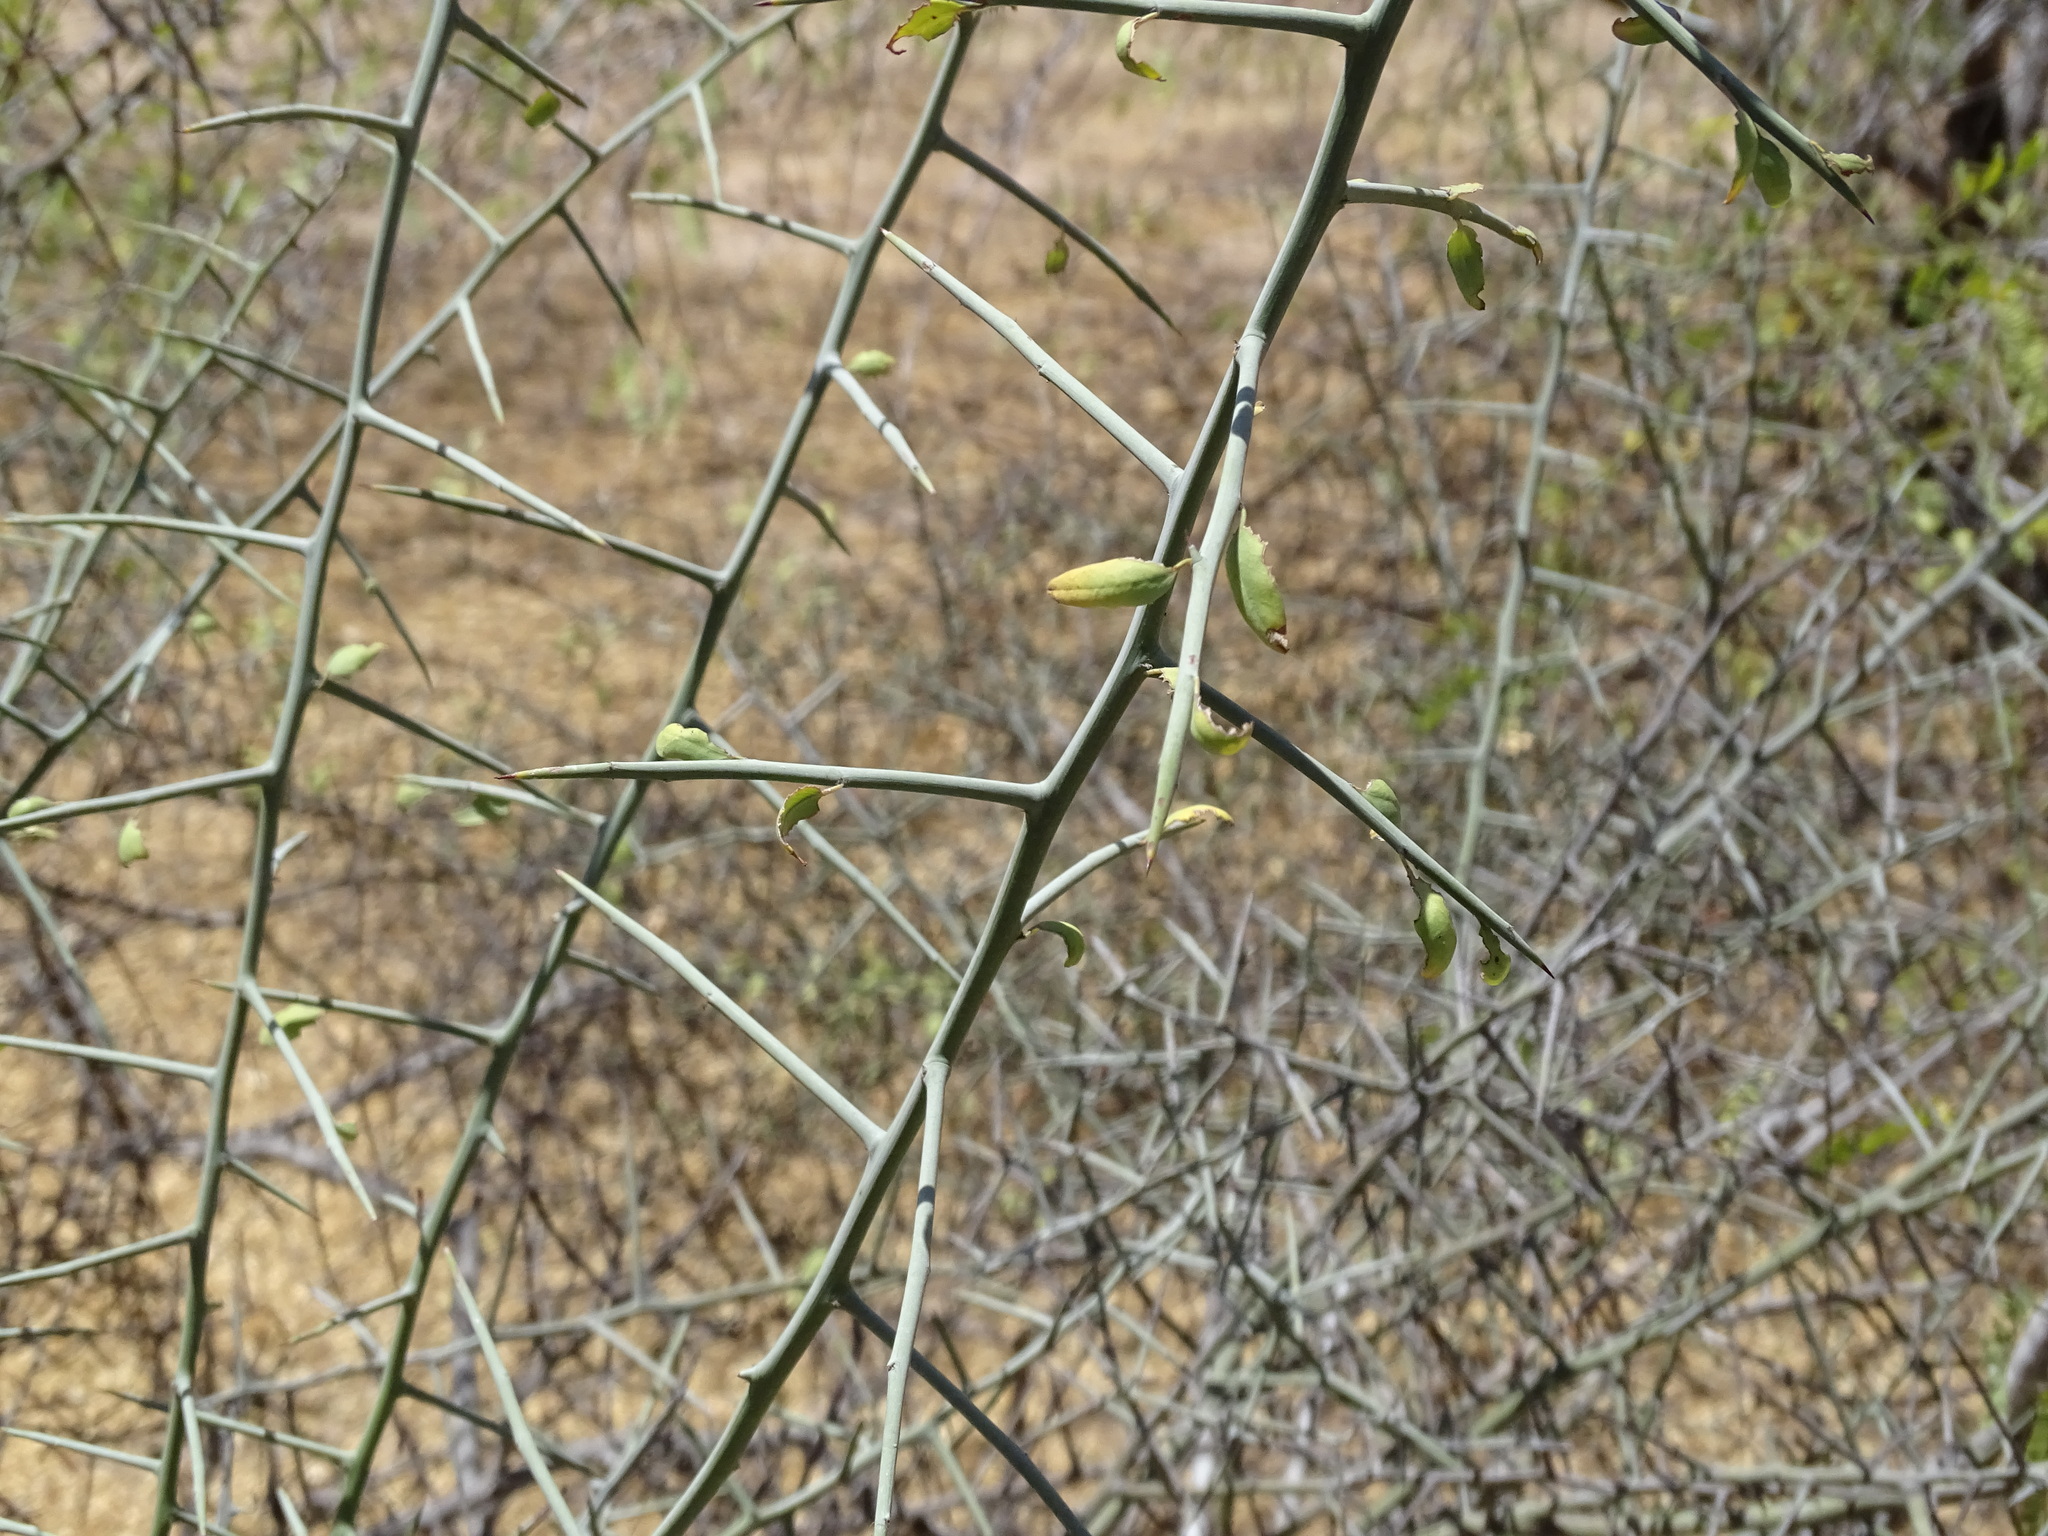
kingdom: Plantae
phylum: Tracheophyta
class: Magnoliopsida
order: Rosales
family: Rhamnaceae
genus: Sarcomphalus
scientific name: Sarcomphalus obtusifolius
